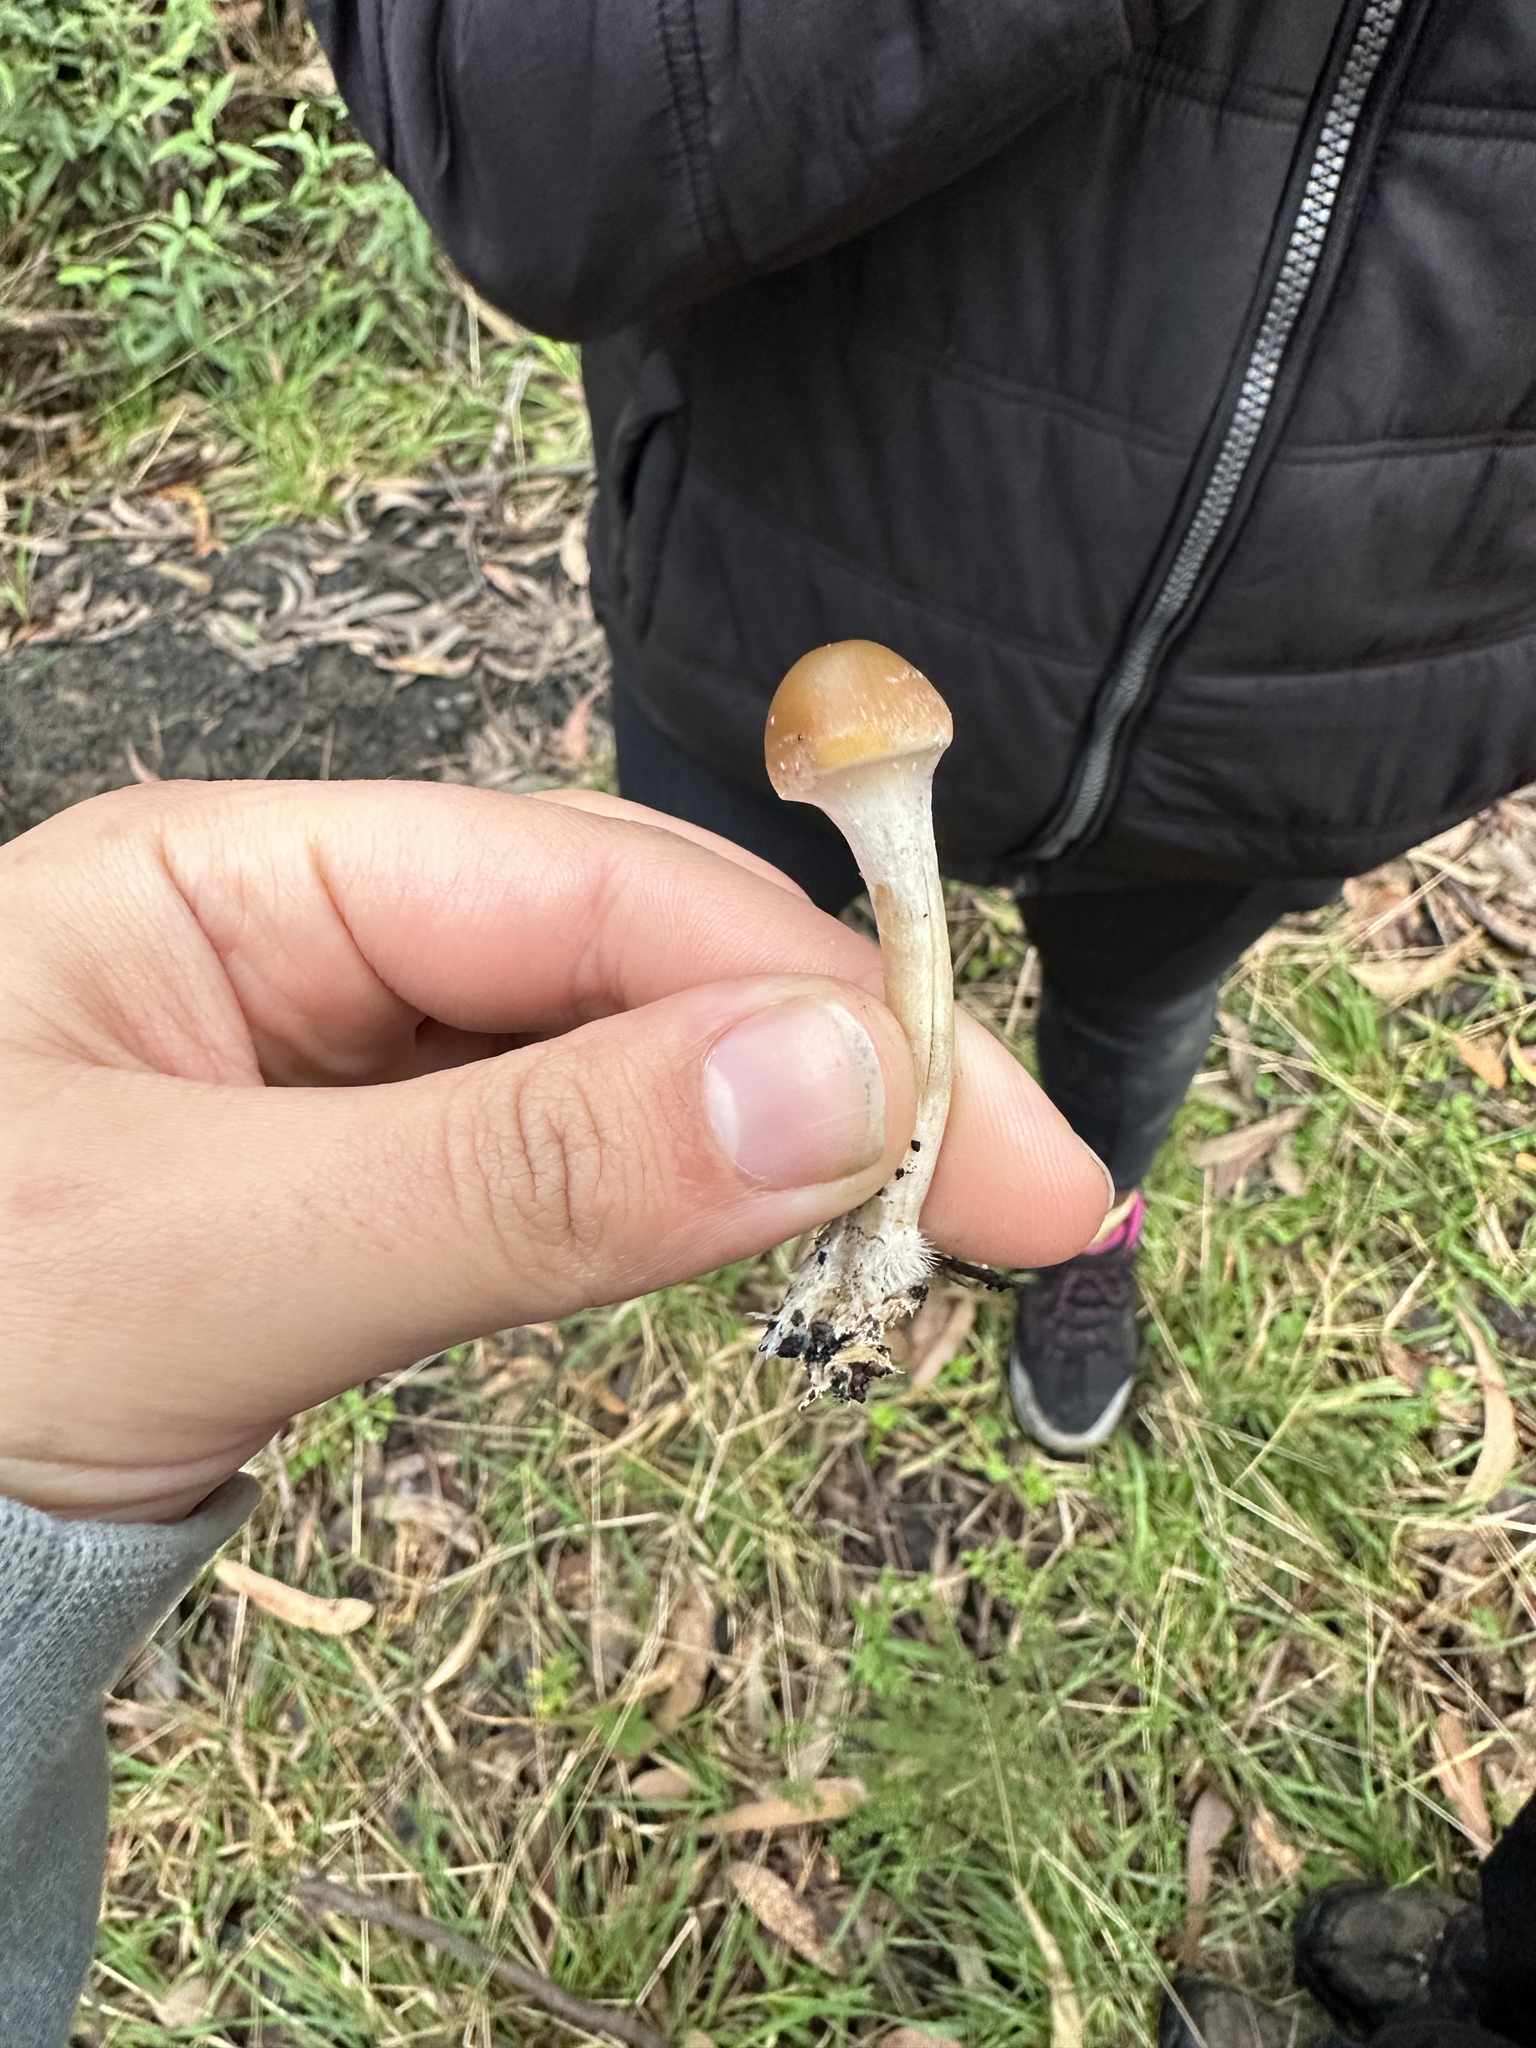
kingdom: Fungi
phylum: Basidiomycota
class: Agaricomycetes
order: Agaricales
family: Hymenogastraceae
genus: Psilocybe
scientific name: Psilocybe subaeruginosa
